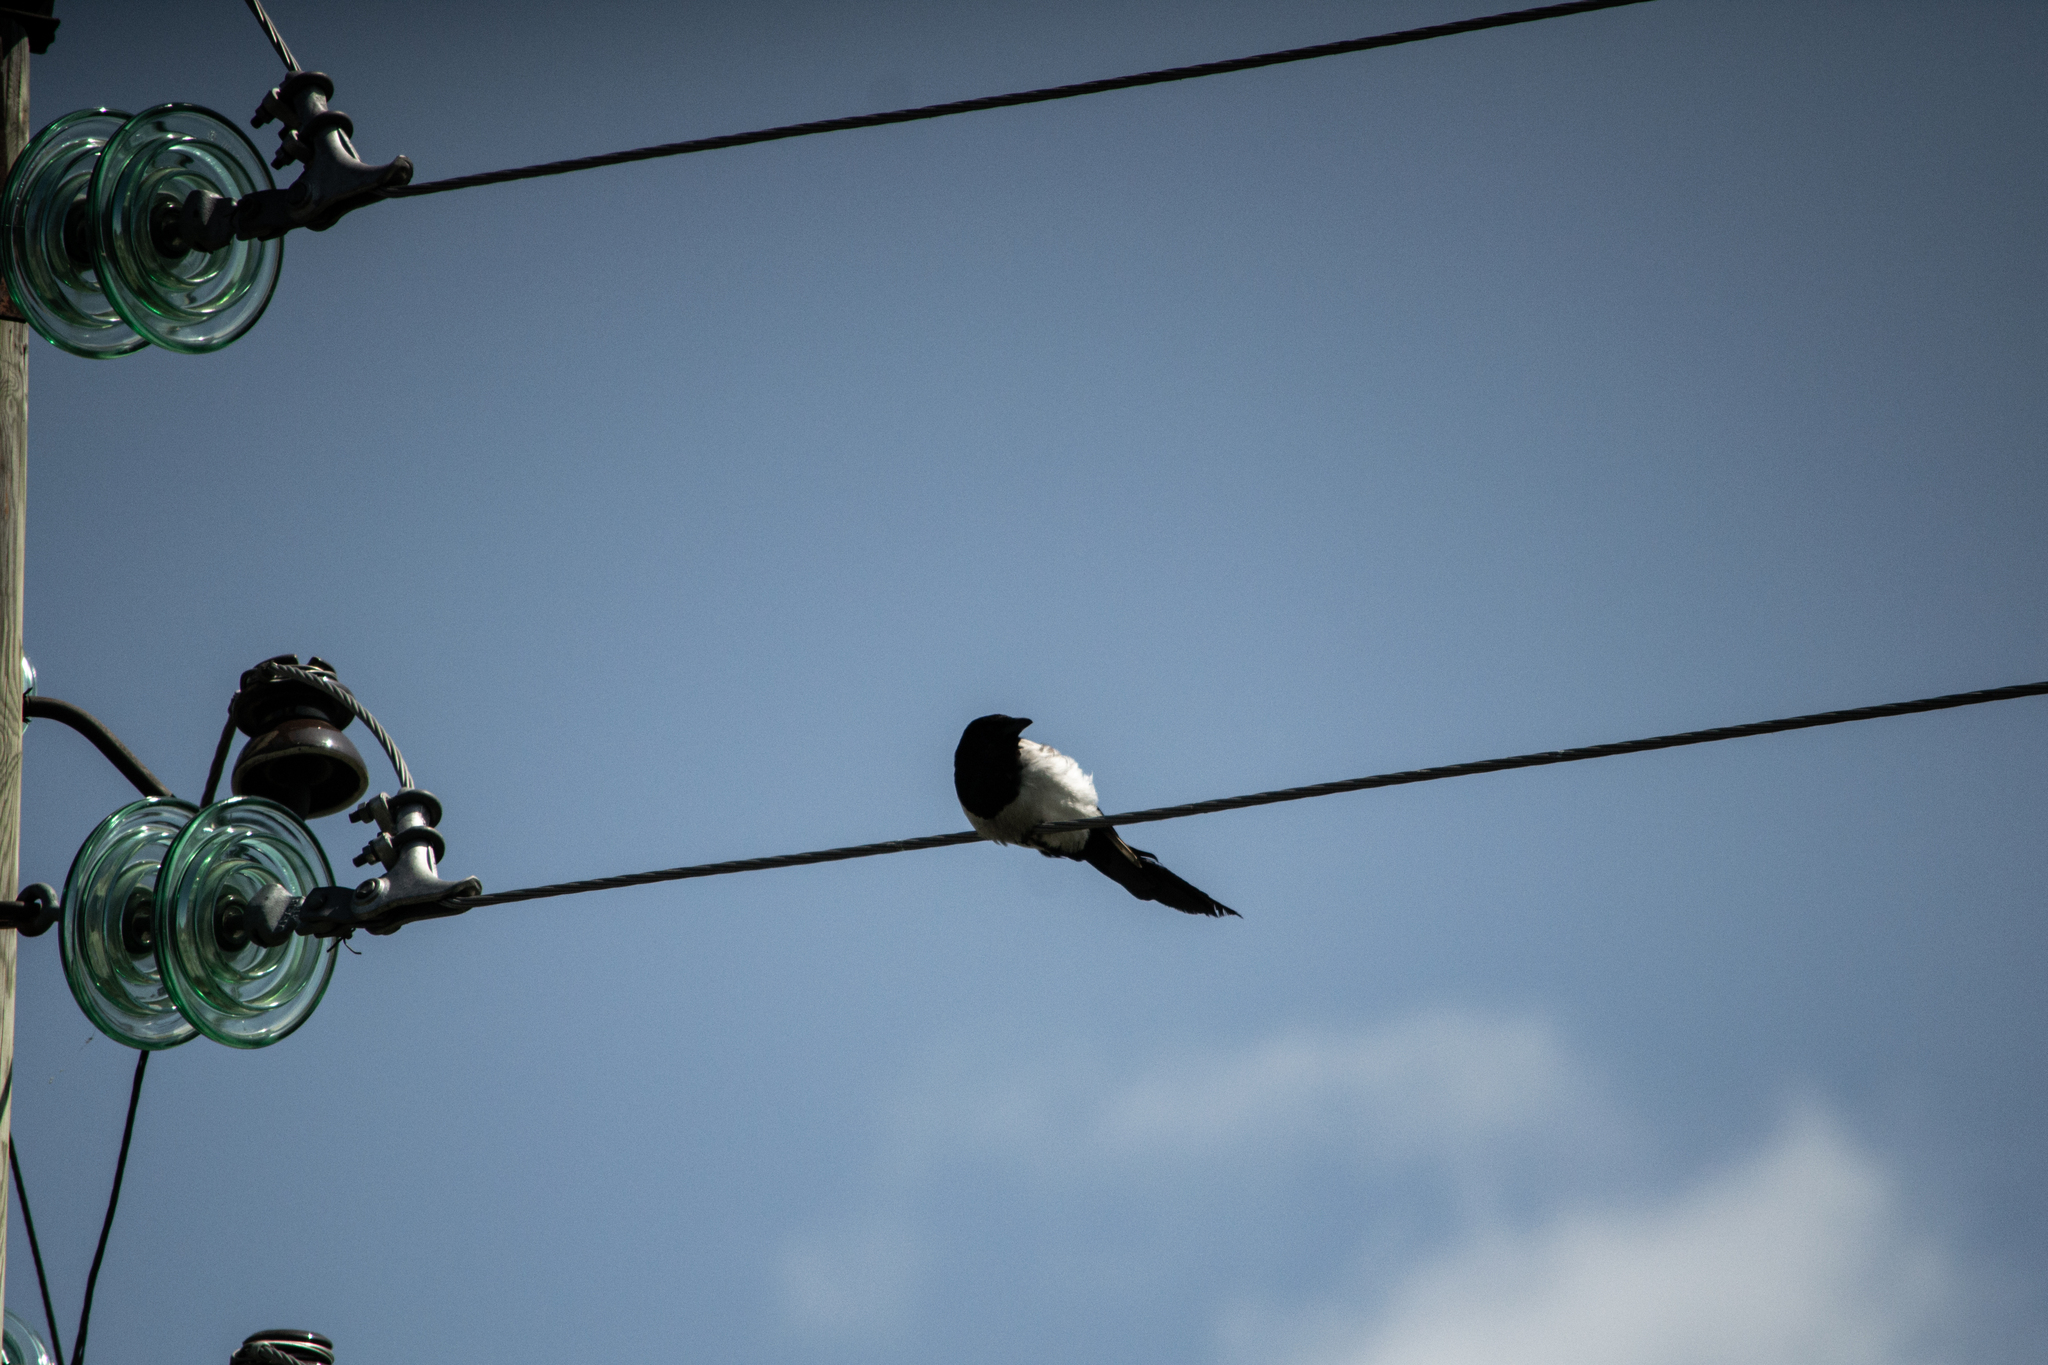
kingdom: Animalia
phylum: Chordata
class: Aves
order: Passeriformes
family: Corvidae
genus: Pica
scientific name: Pica pica
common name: Eurasian magpie
